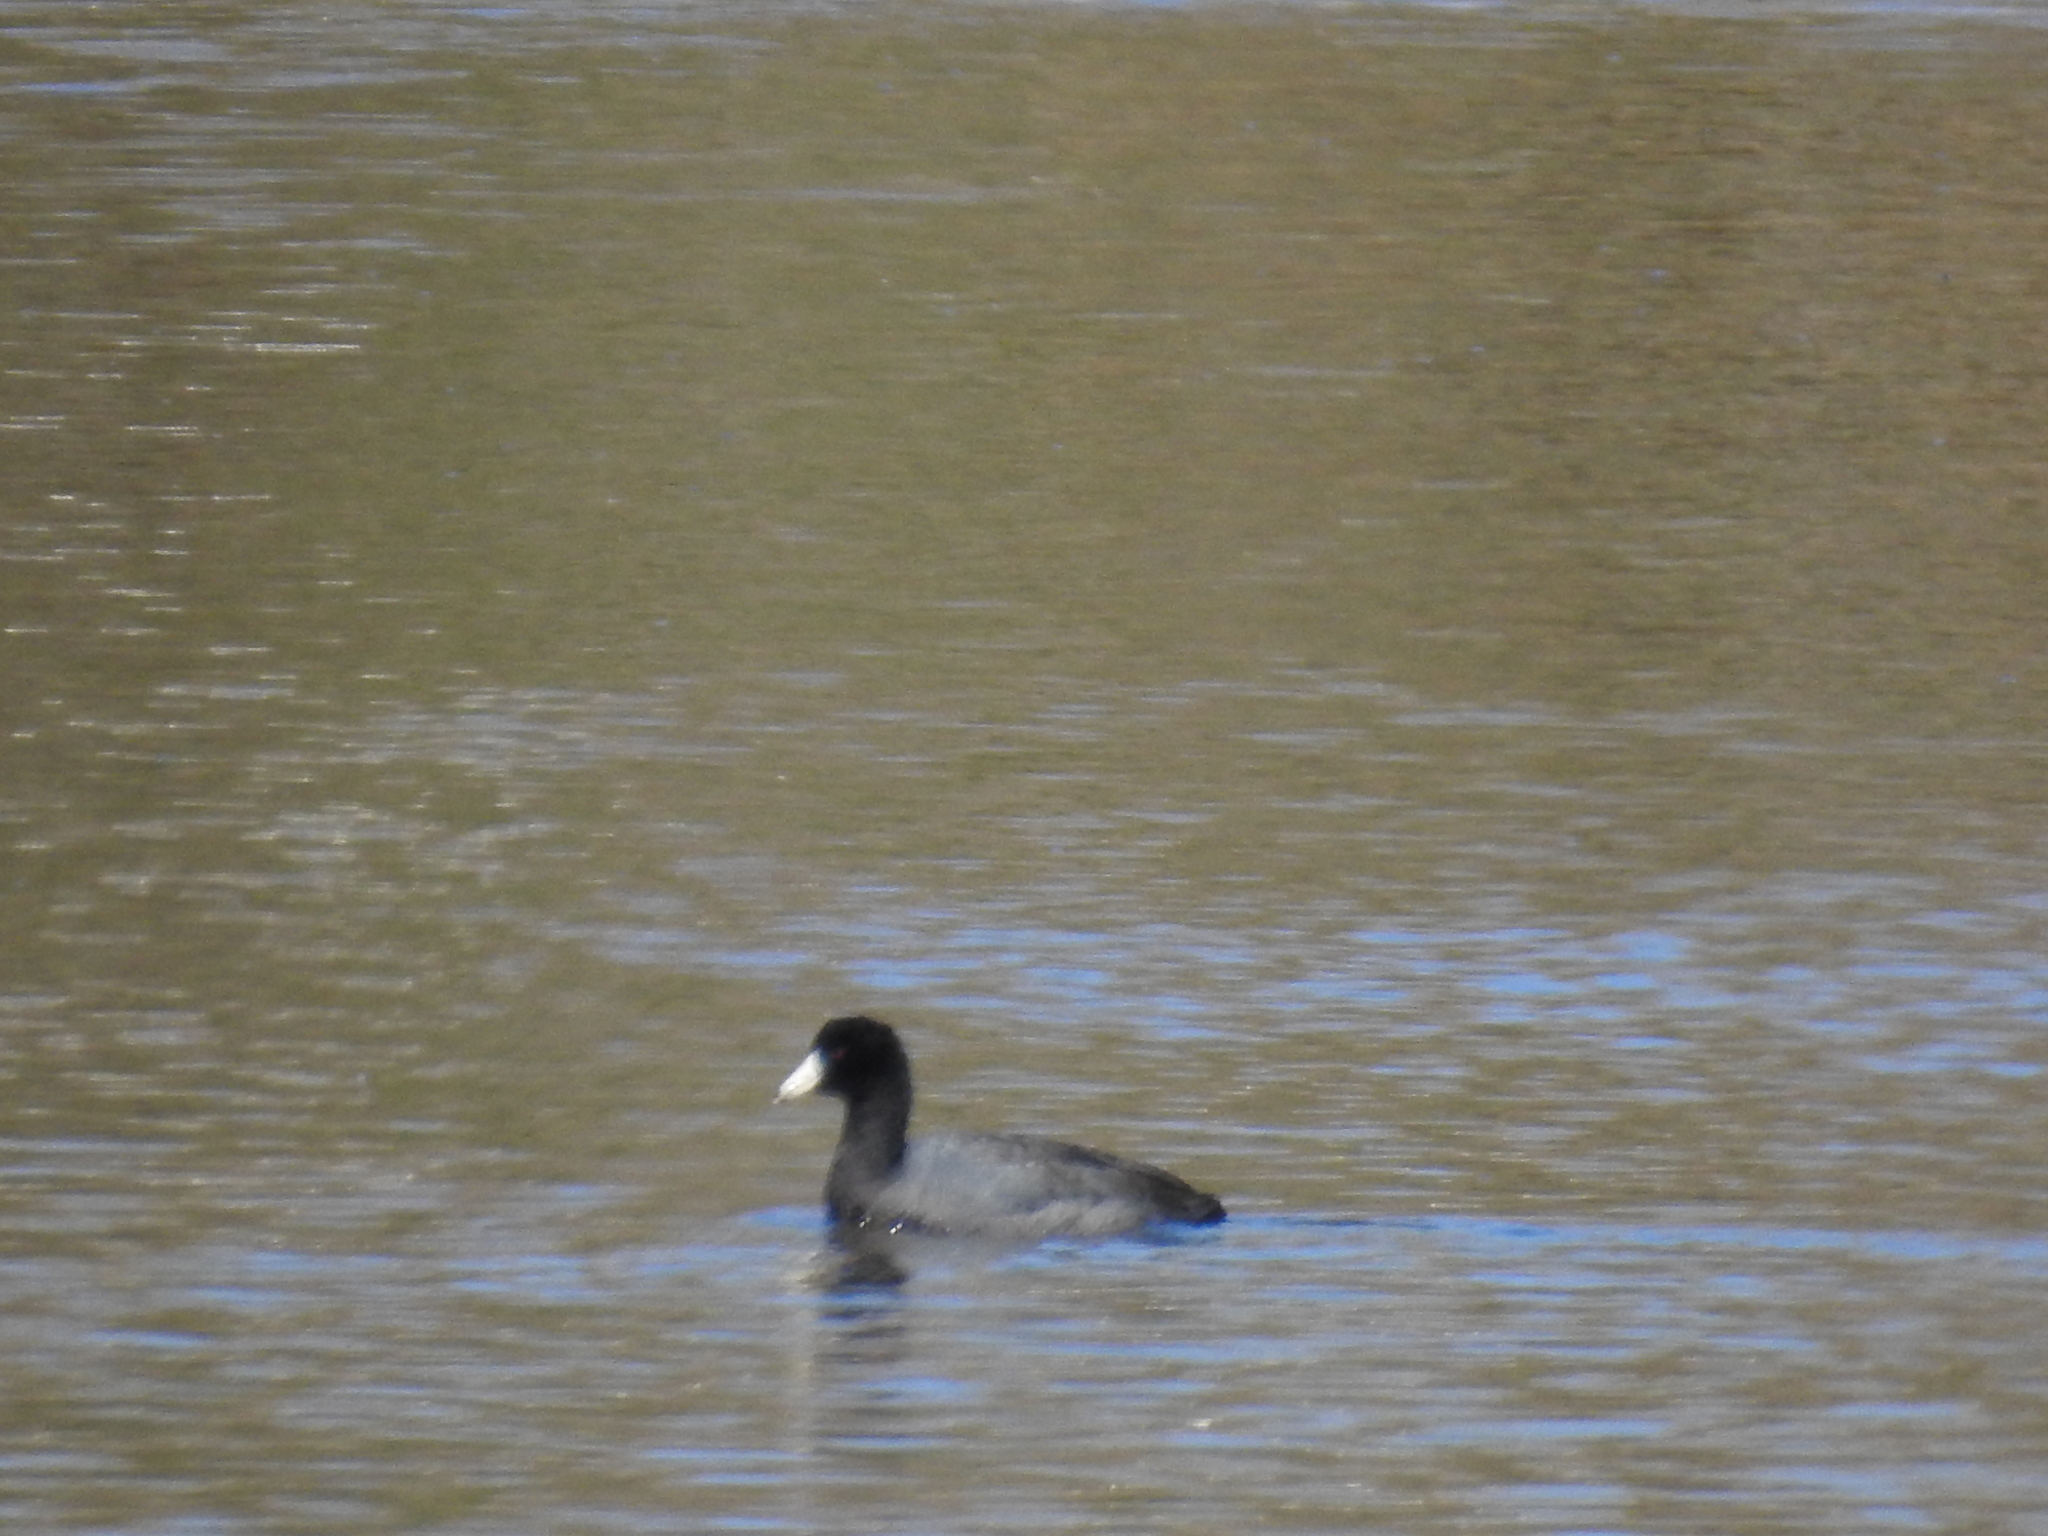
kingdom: Animalia
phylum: Chordata
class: Aves
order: Gruiformes
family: Rallidae
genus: Fulica
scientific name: Fulica americana
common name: American coot
